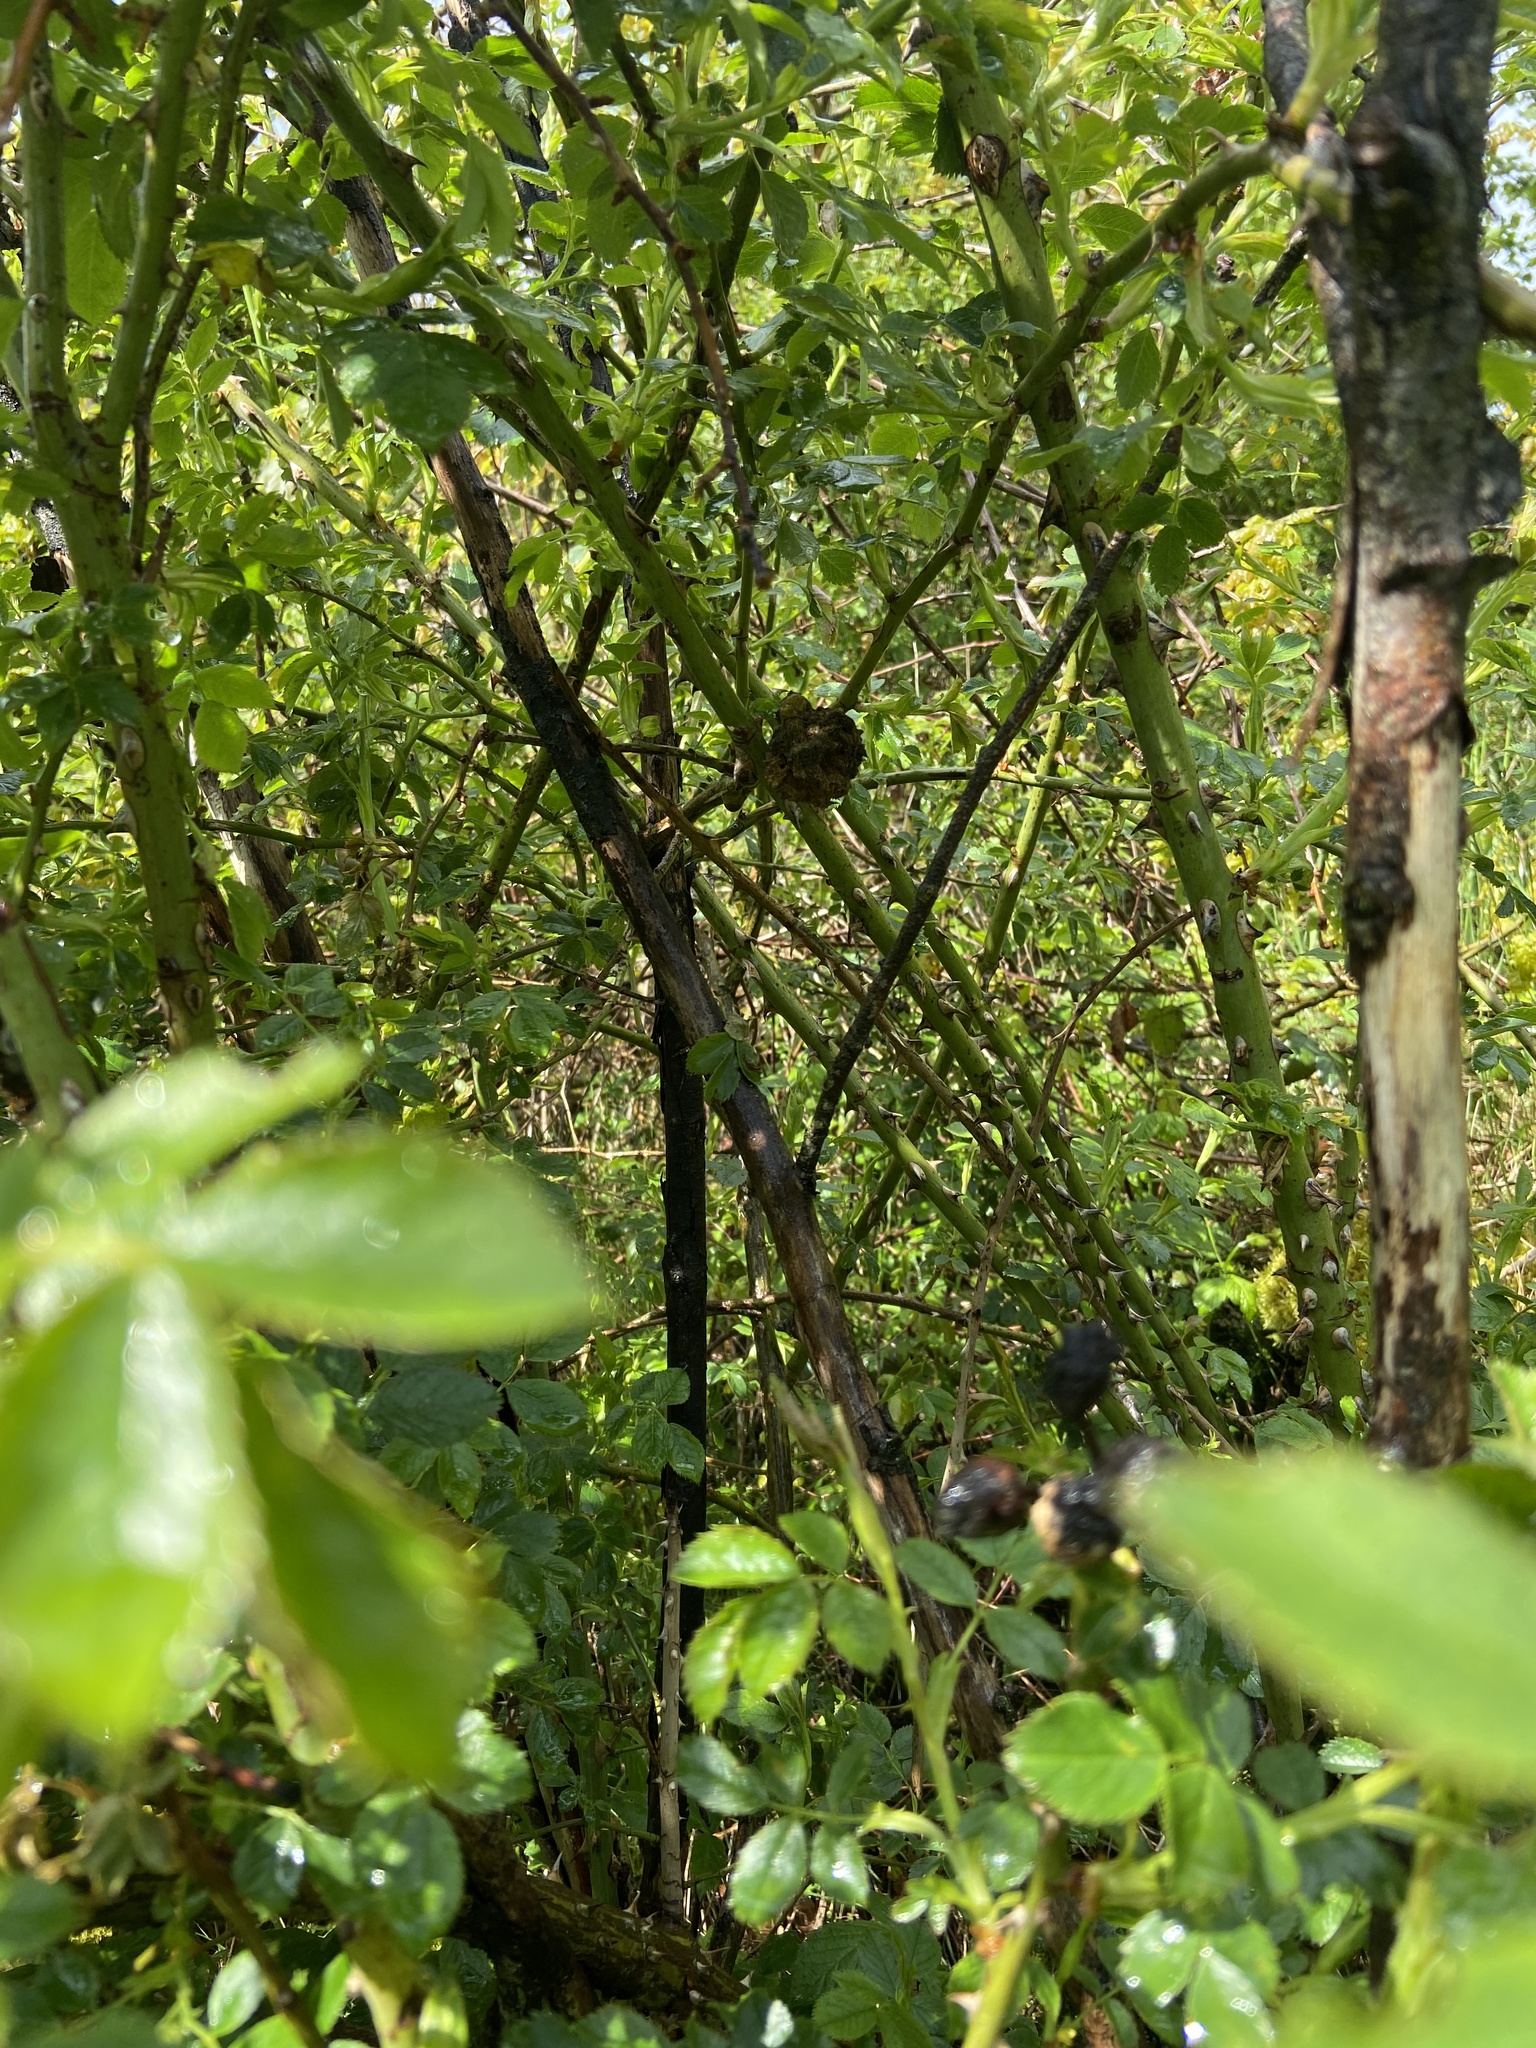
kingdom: Animalia
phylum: Arthropoda
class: Insecta
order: Hymenoptera
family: Cynipidae
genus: Diplolepis
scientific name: Diplolepis rosae
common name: Bedeguar gall
